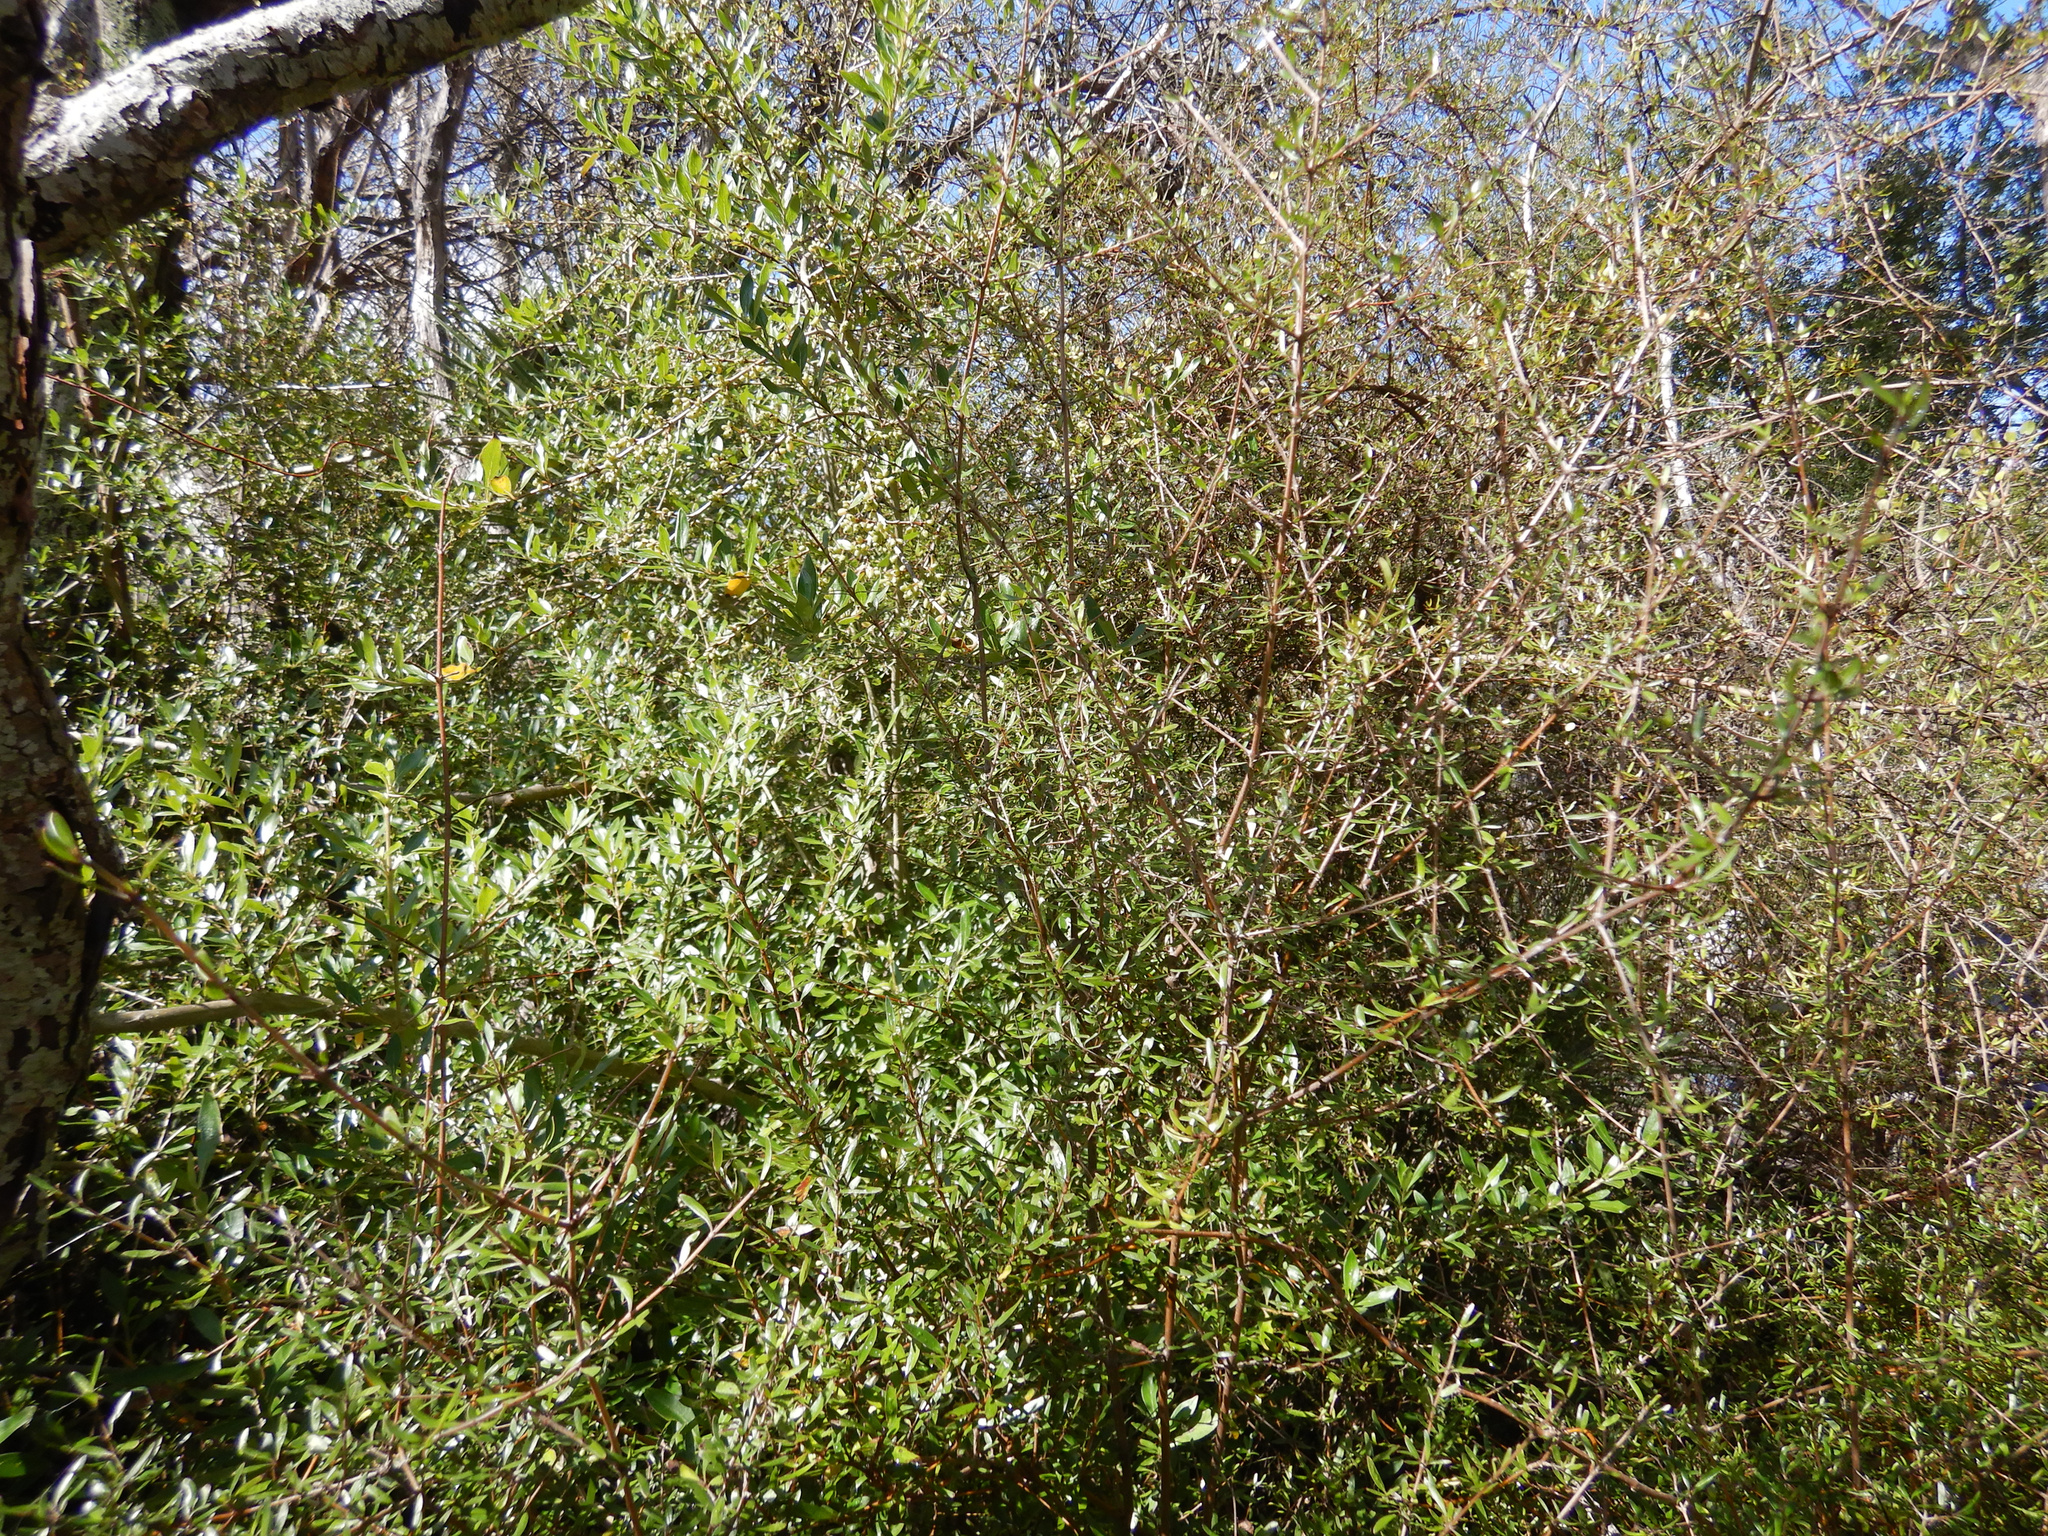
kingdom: Plantae
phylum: Tracheophyta
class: Magnoliopsida
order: Gentianales
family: Rubiaceae
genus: Coprosma
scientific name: Coprosma cunninghamii
